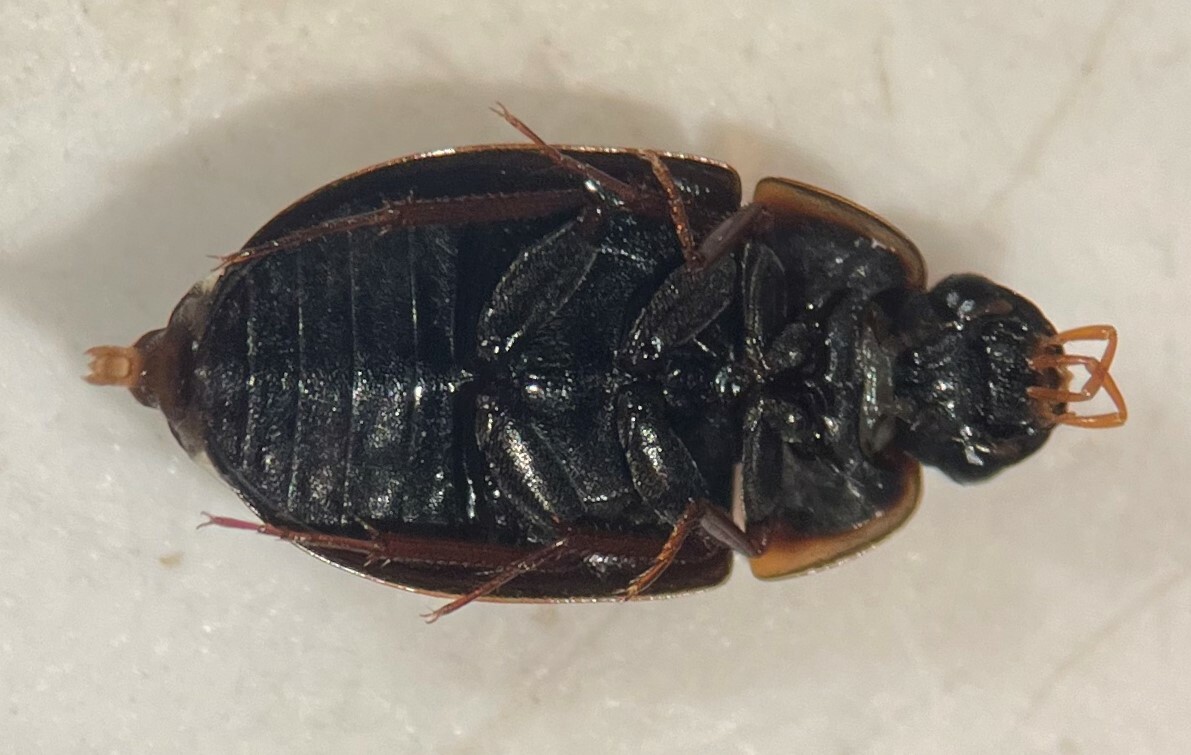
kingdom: Animalia
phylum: Arthropoda
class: Insecta
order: Coleoptera
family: Hydrophilidae
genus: Cymbiodyta
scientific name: Cymbiodyta fraterculus
